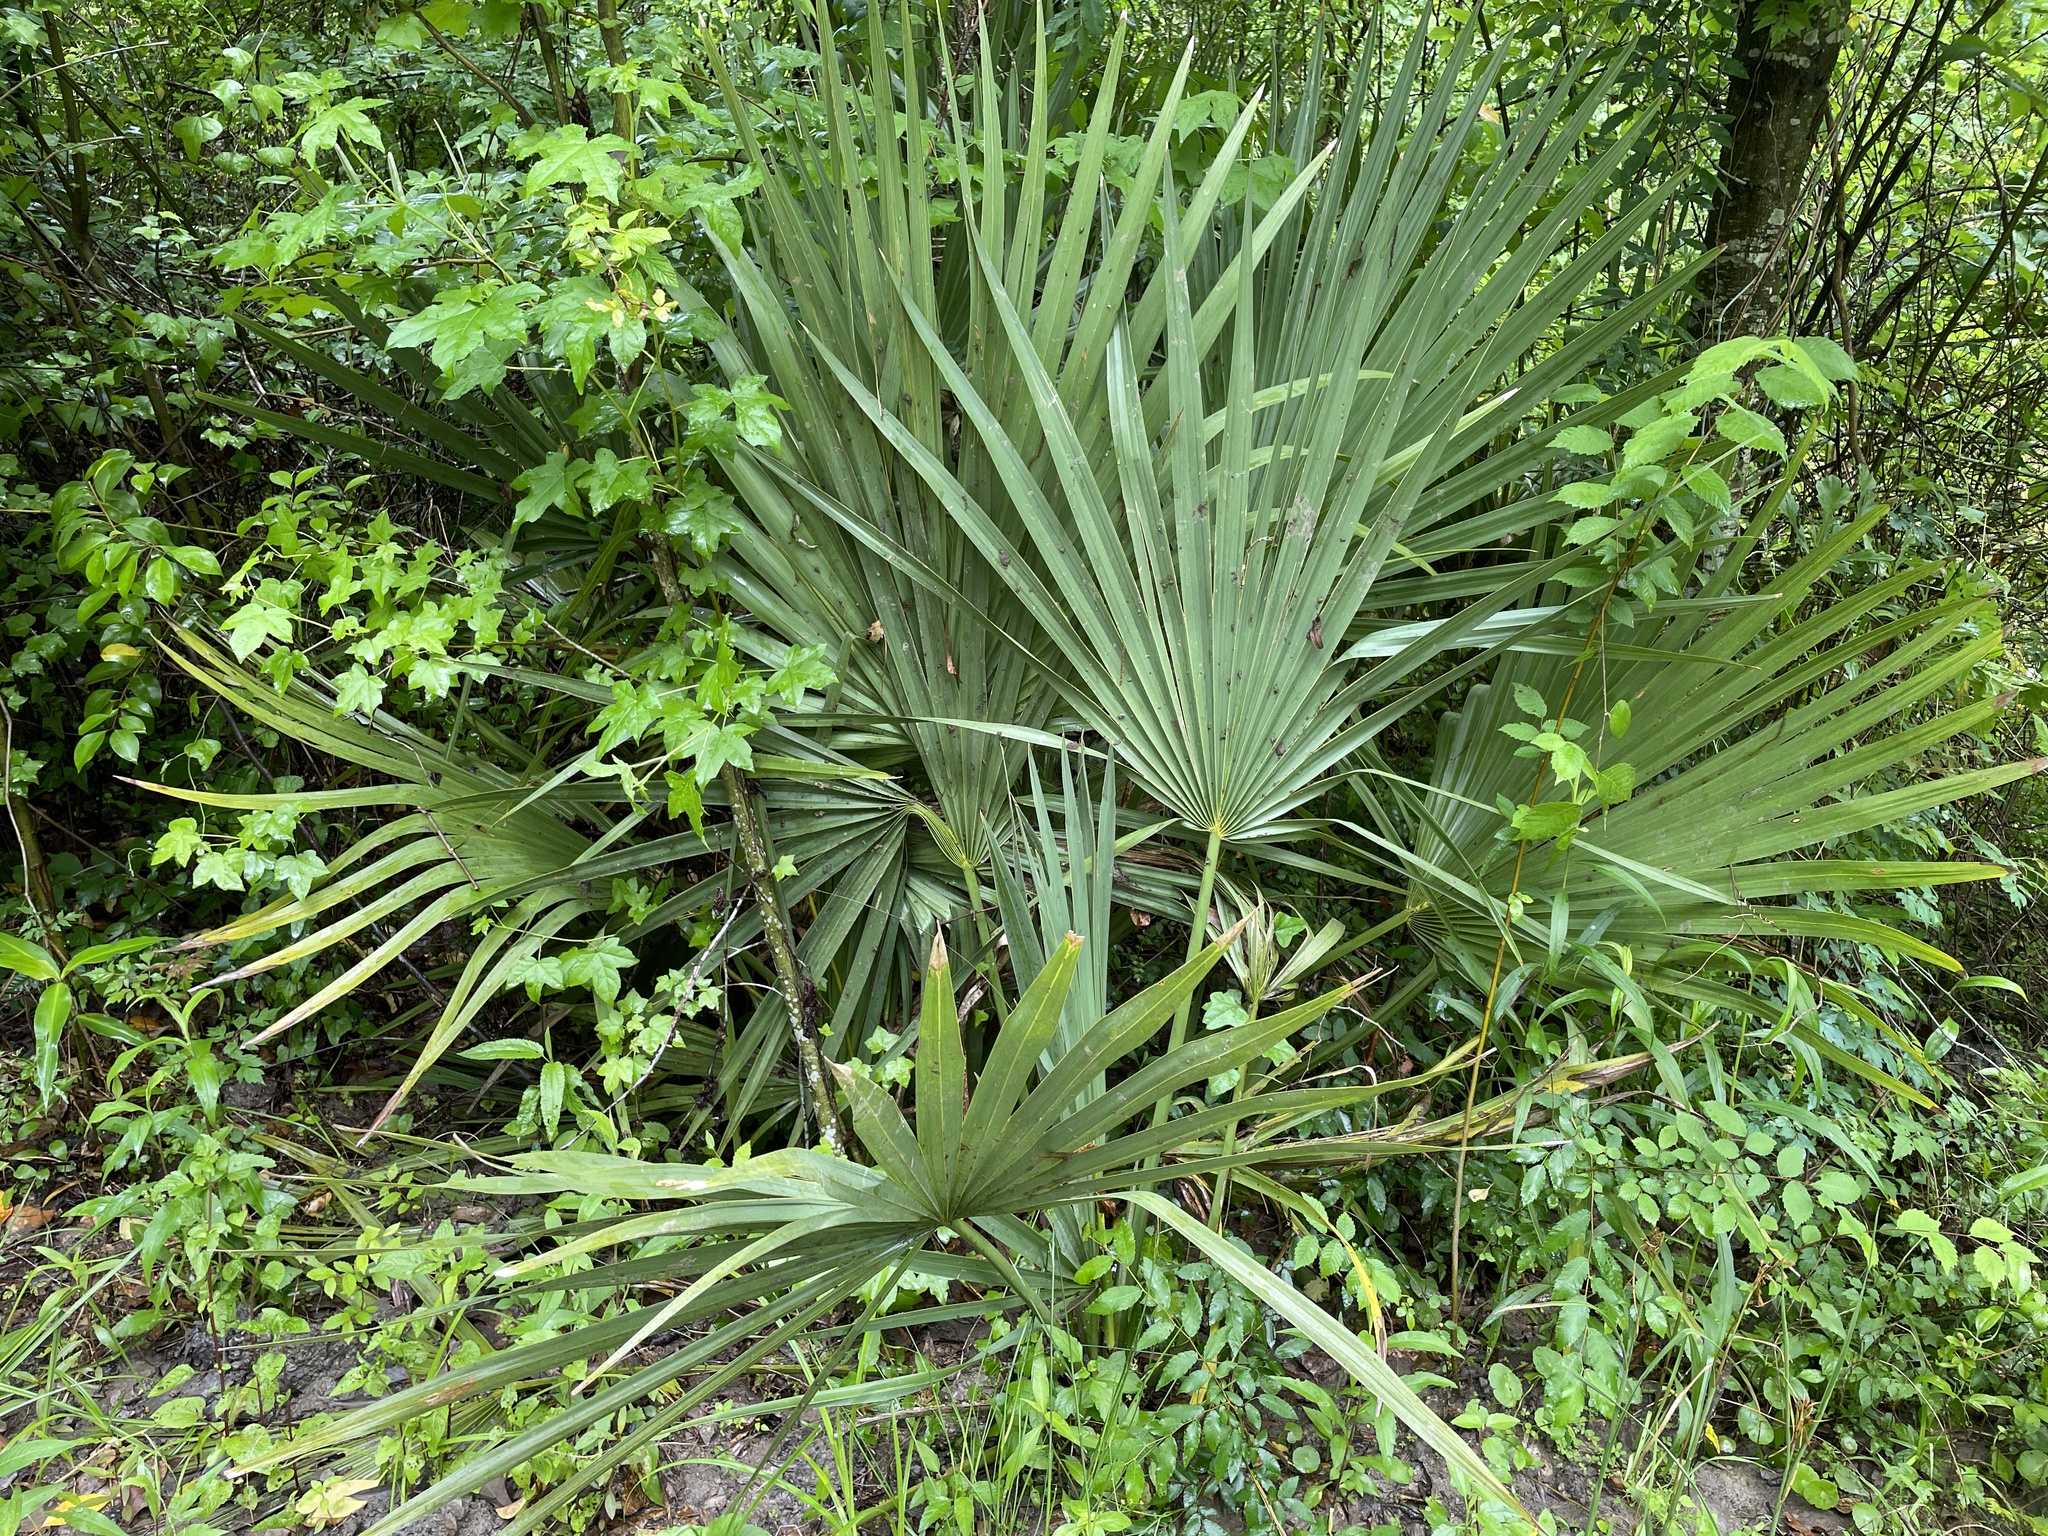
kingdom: Plantae
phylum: Tracheophyta
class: Liliopsida
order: Arecales
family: Arecaceae
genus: Sabal
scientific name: Sabal minor
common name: Dwarf palmetto
